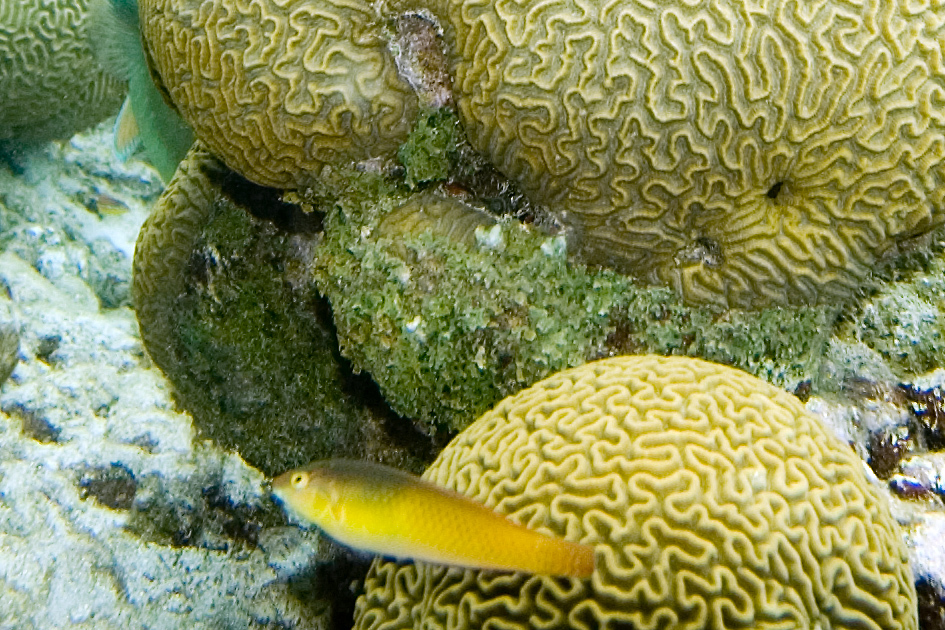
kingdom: Animalia
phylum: Chordata
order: Perciformes
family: Labridae
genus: Halichoeres
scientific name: Halichoeres garnoti
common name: Yellowhead wrasse
